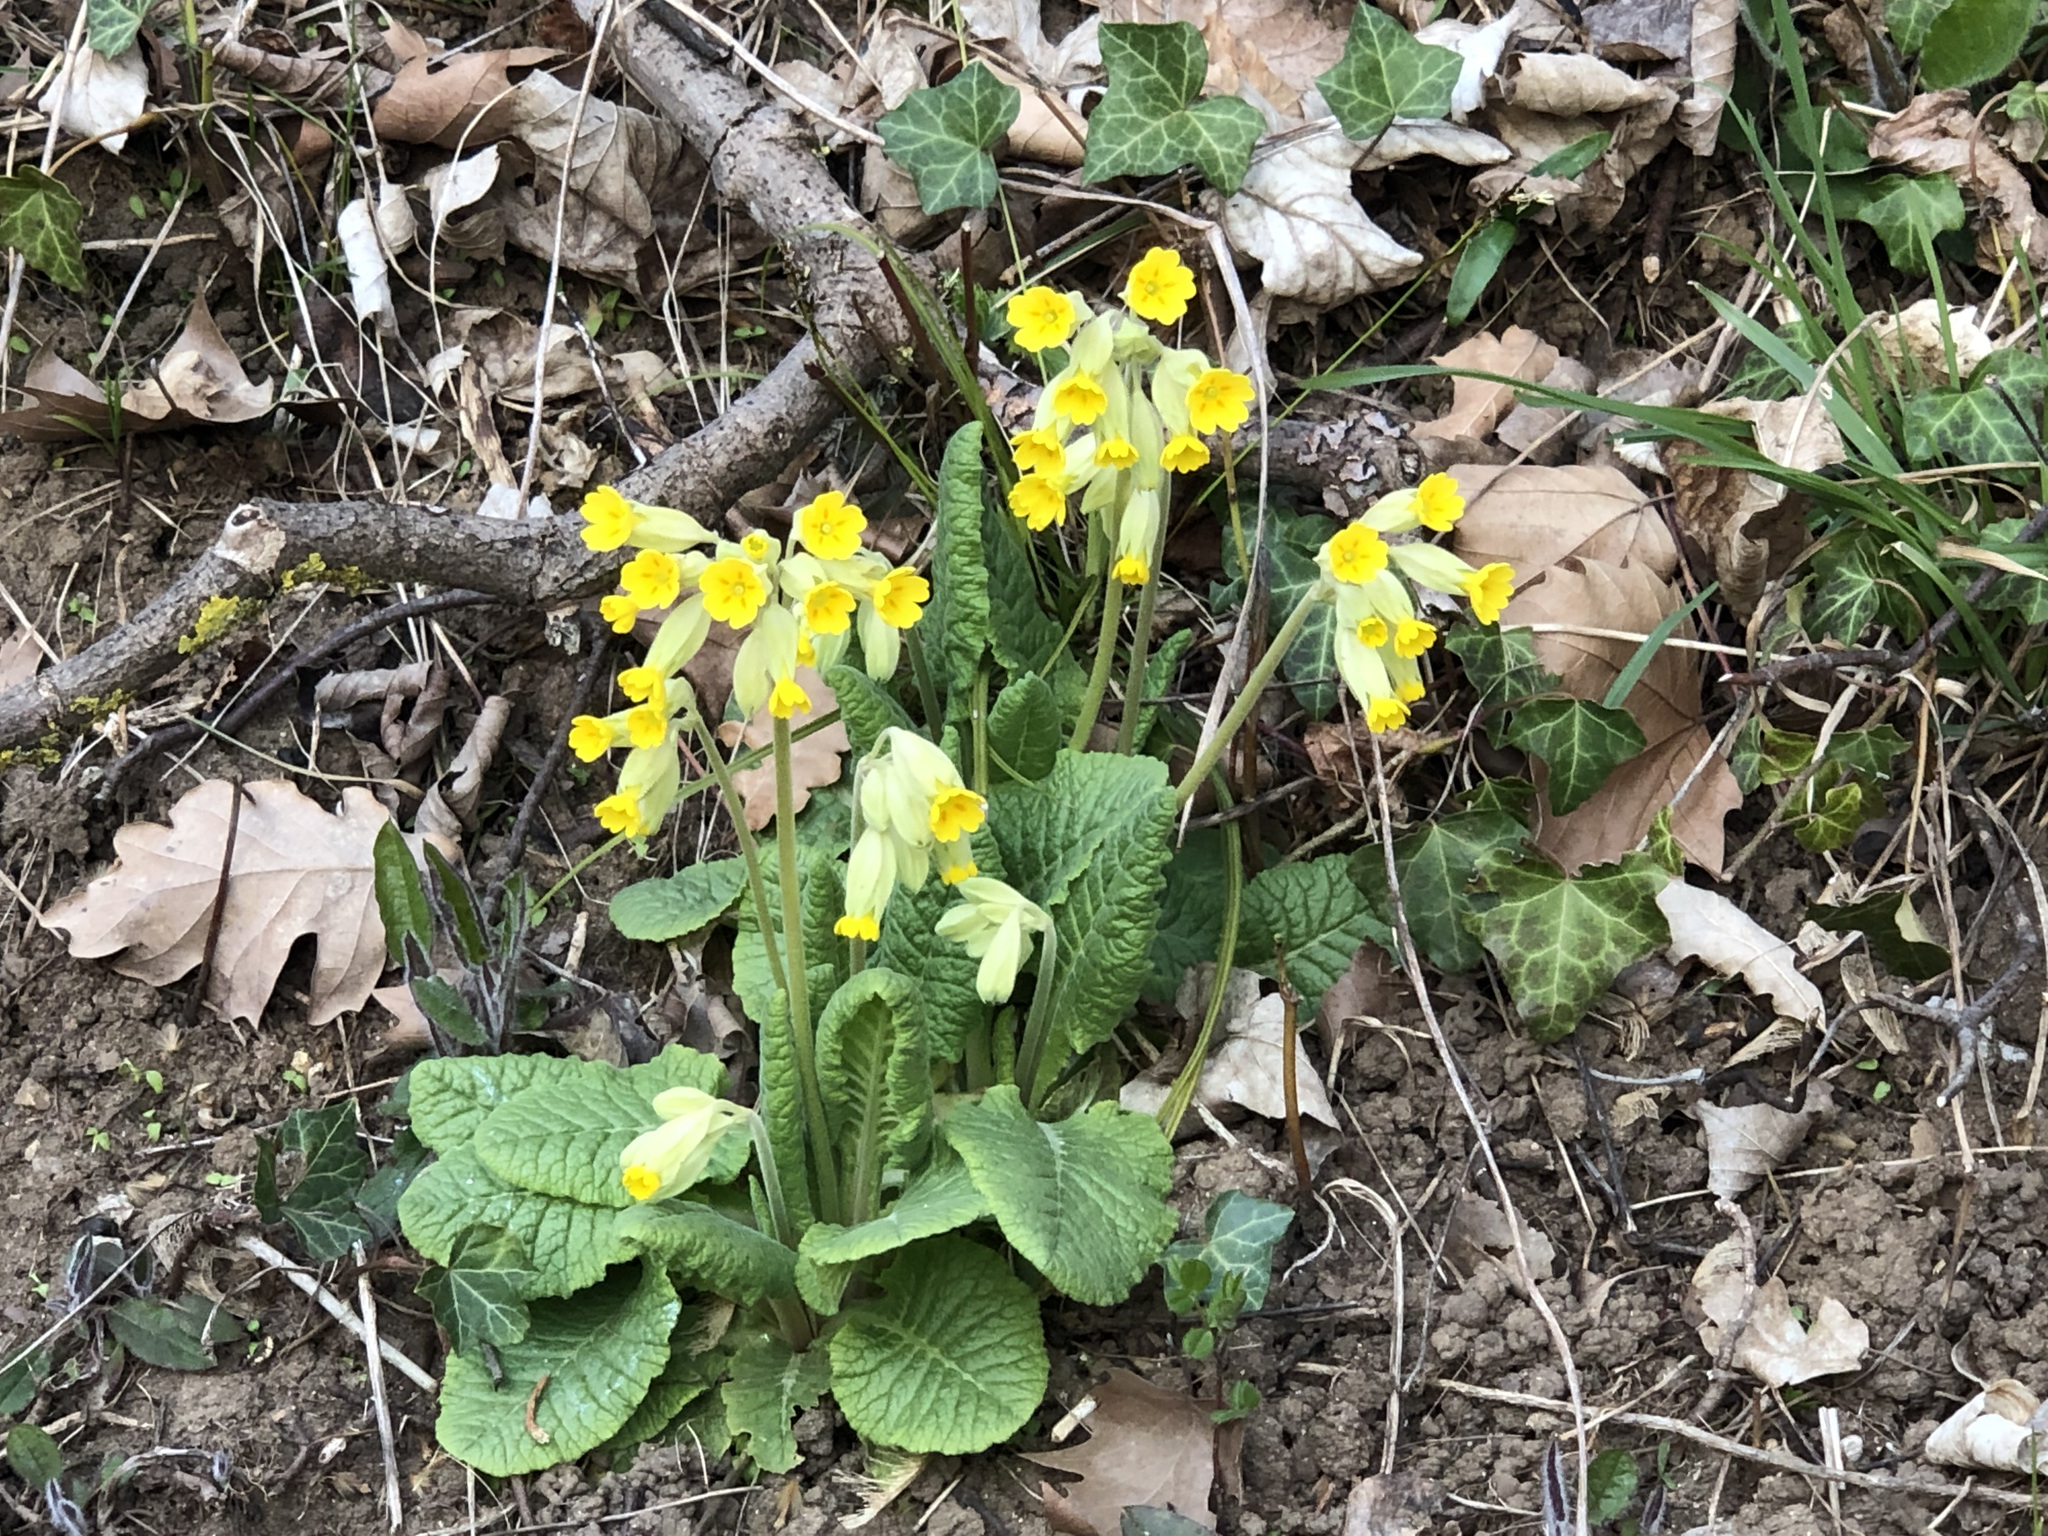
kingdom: Plantae
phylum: Tracheophyta
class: Magnoliopsida
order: Ericales
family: Primulaceae
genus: Primula
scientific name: Primula veris
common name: Cowslip
